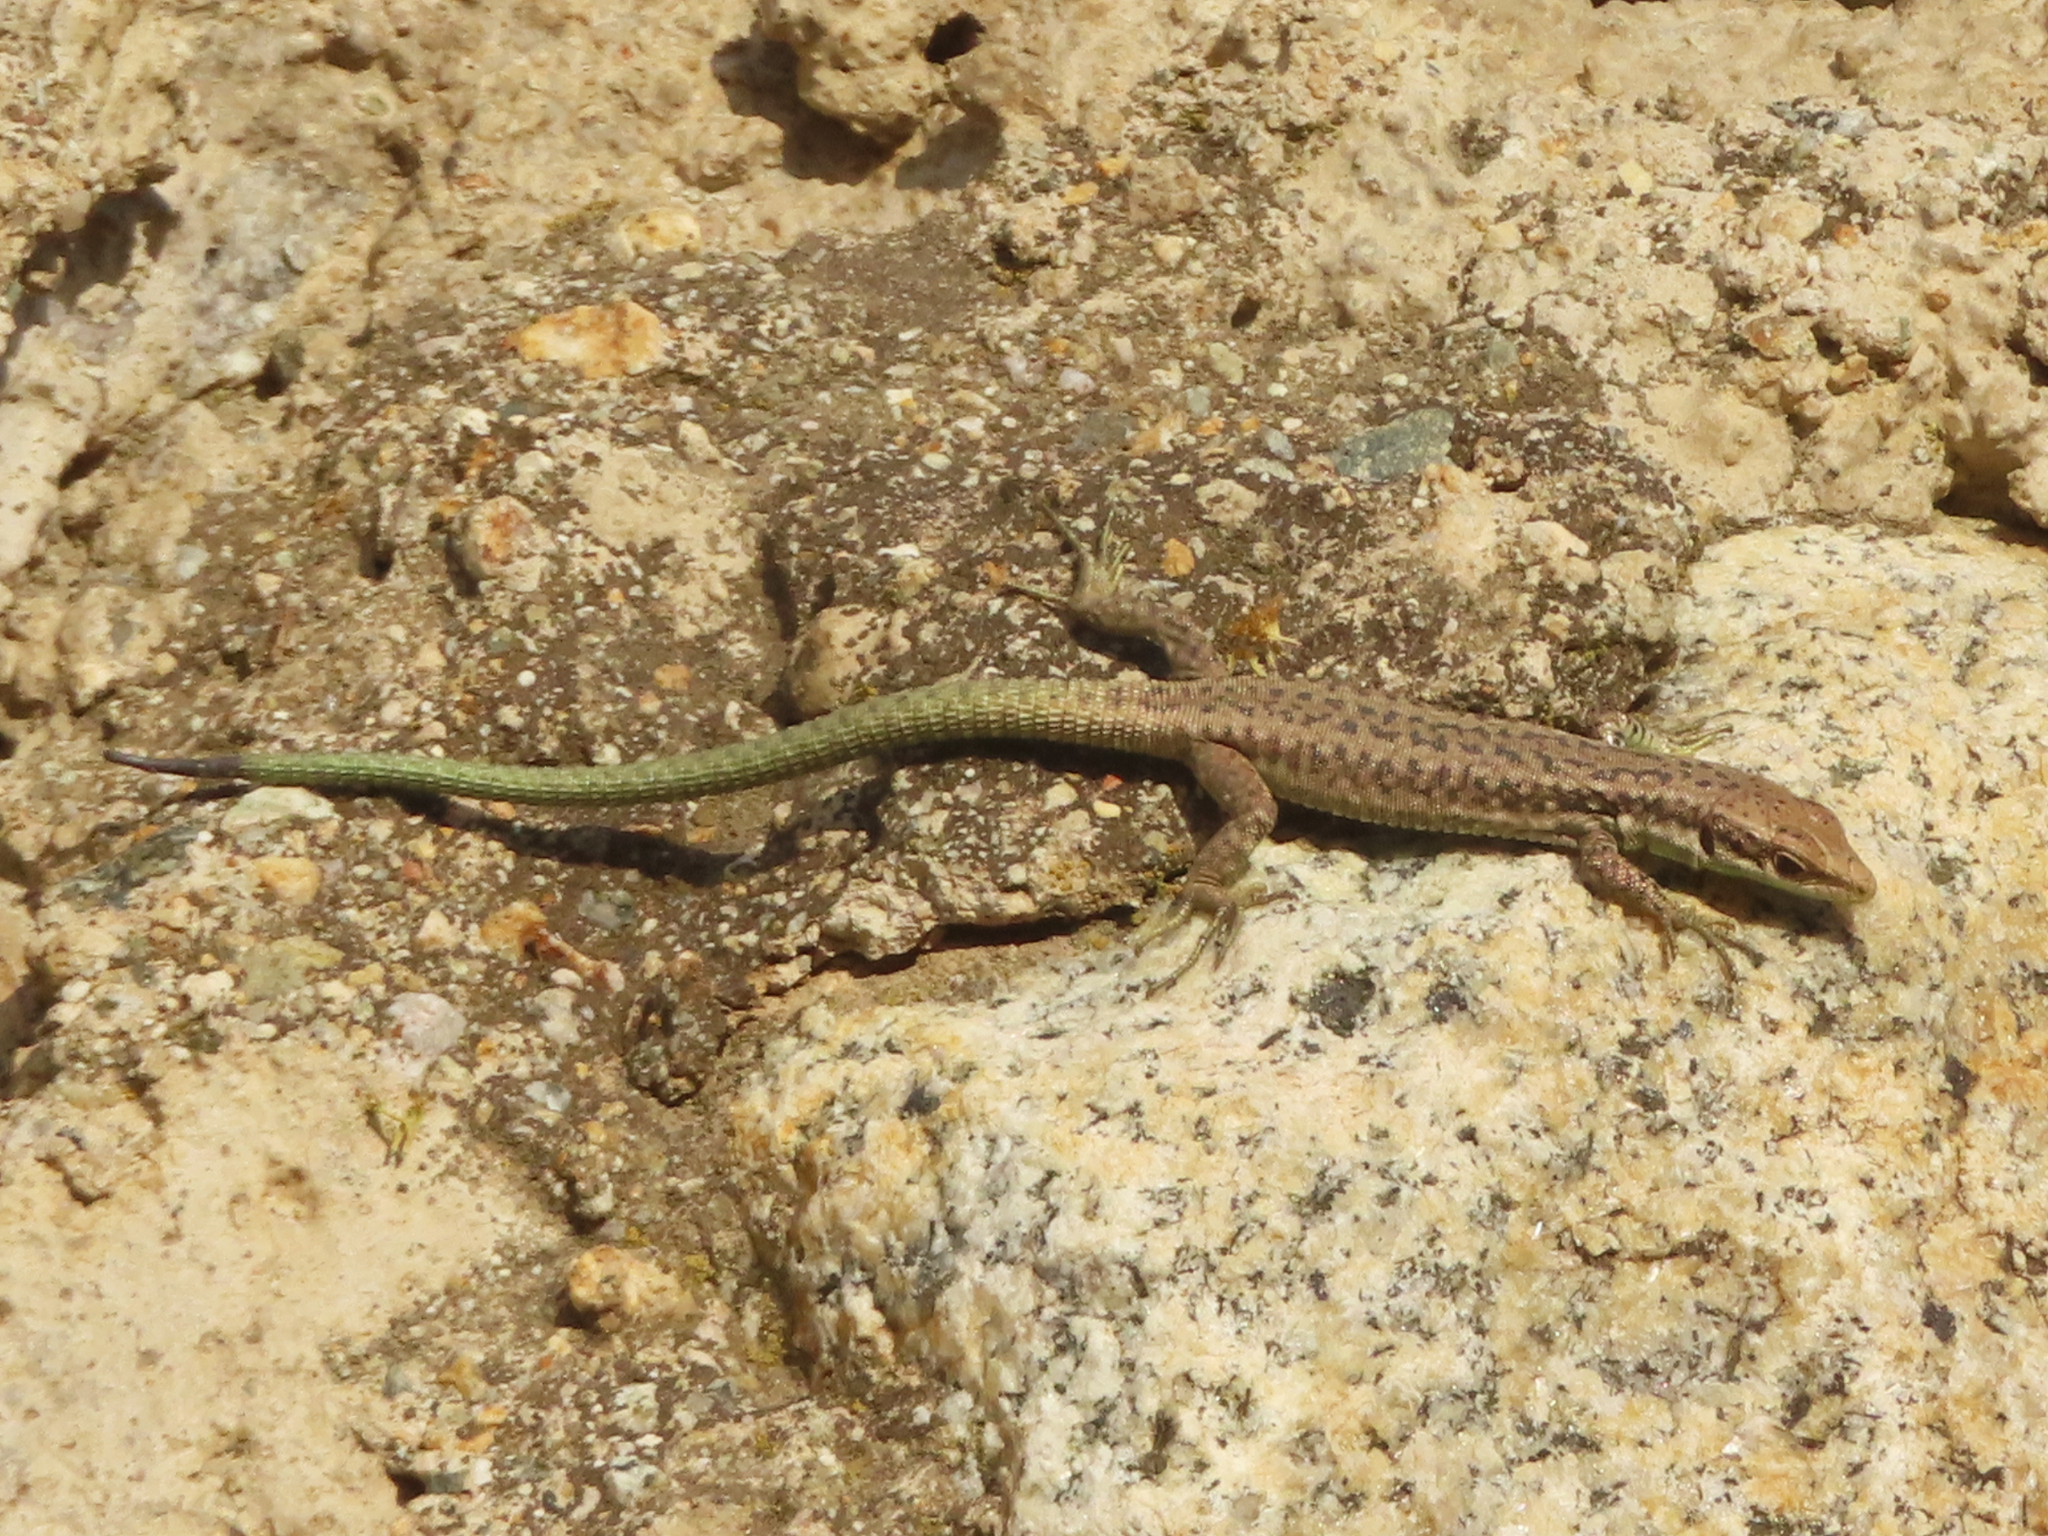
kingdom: Animalia
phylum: Chordata
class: Squamata
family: Lacertidae
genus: Darevskia
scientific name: Darevskia raddei
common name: Radde's lizard
